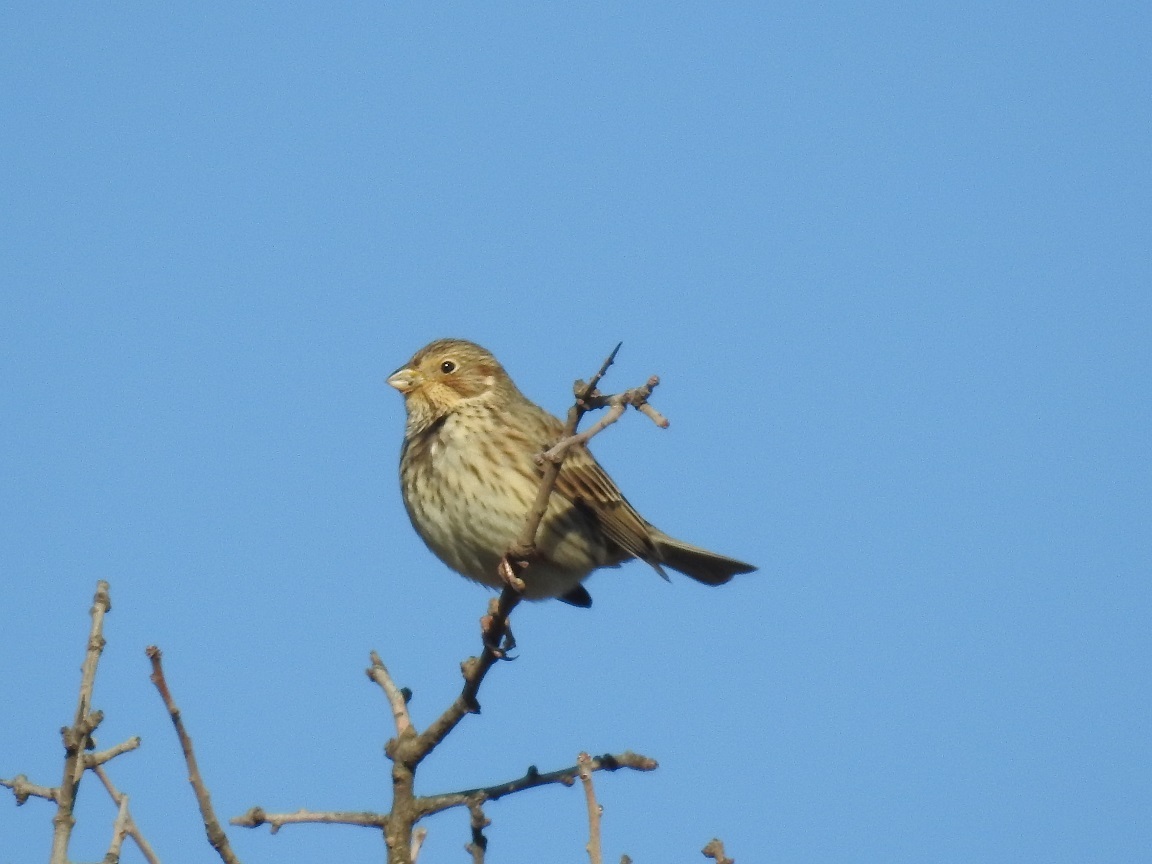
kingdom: Animalia
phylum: Chordata
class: Aves
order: Passeriformes
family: Emberizidae
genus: Emberiza
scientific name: Emberiza calandra
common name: Corn bunting
